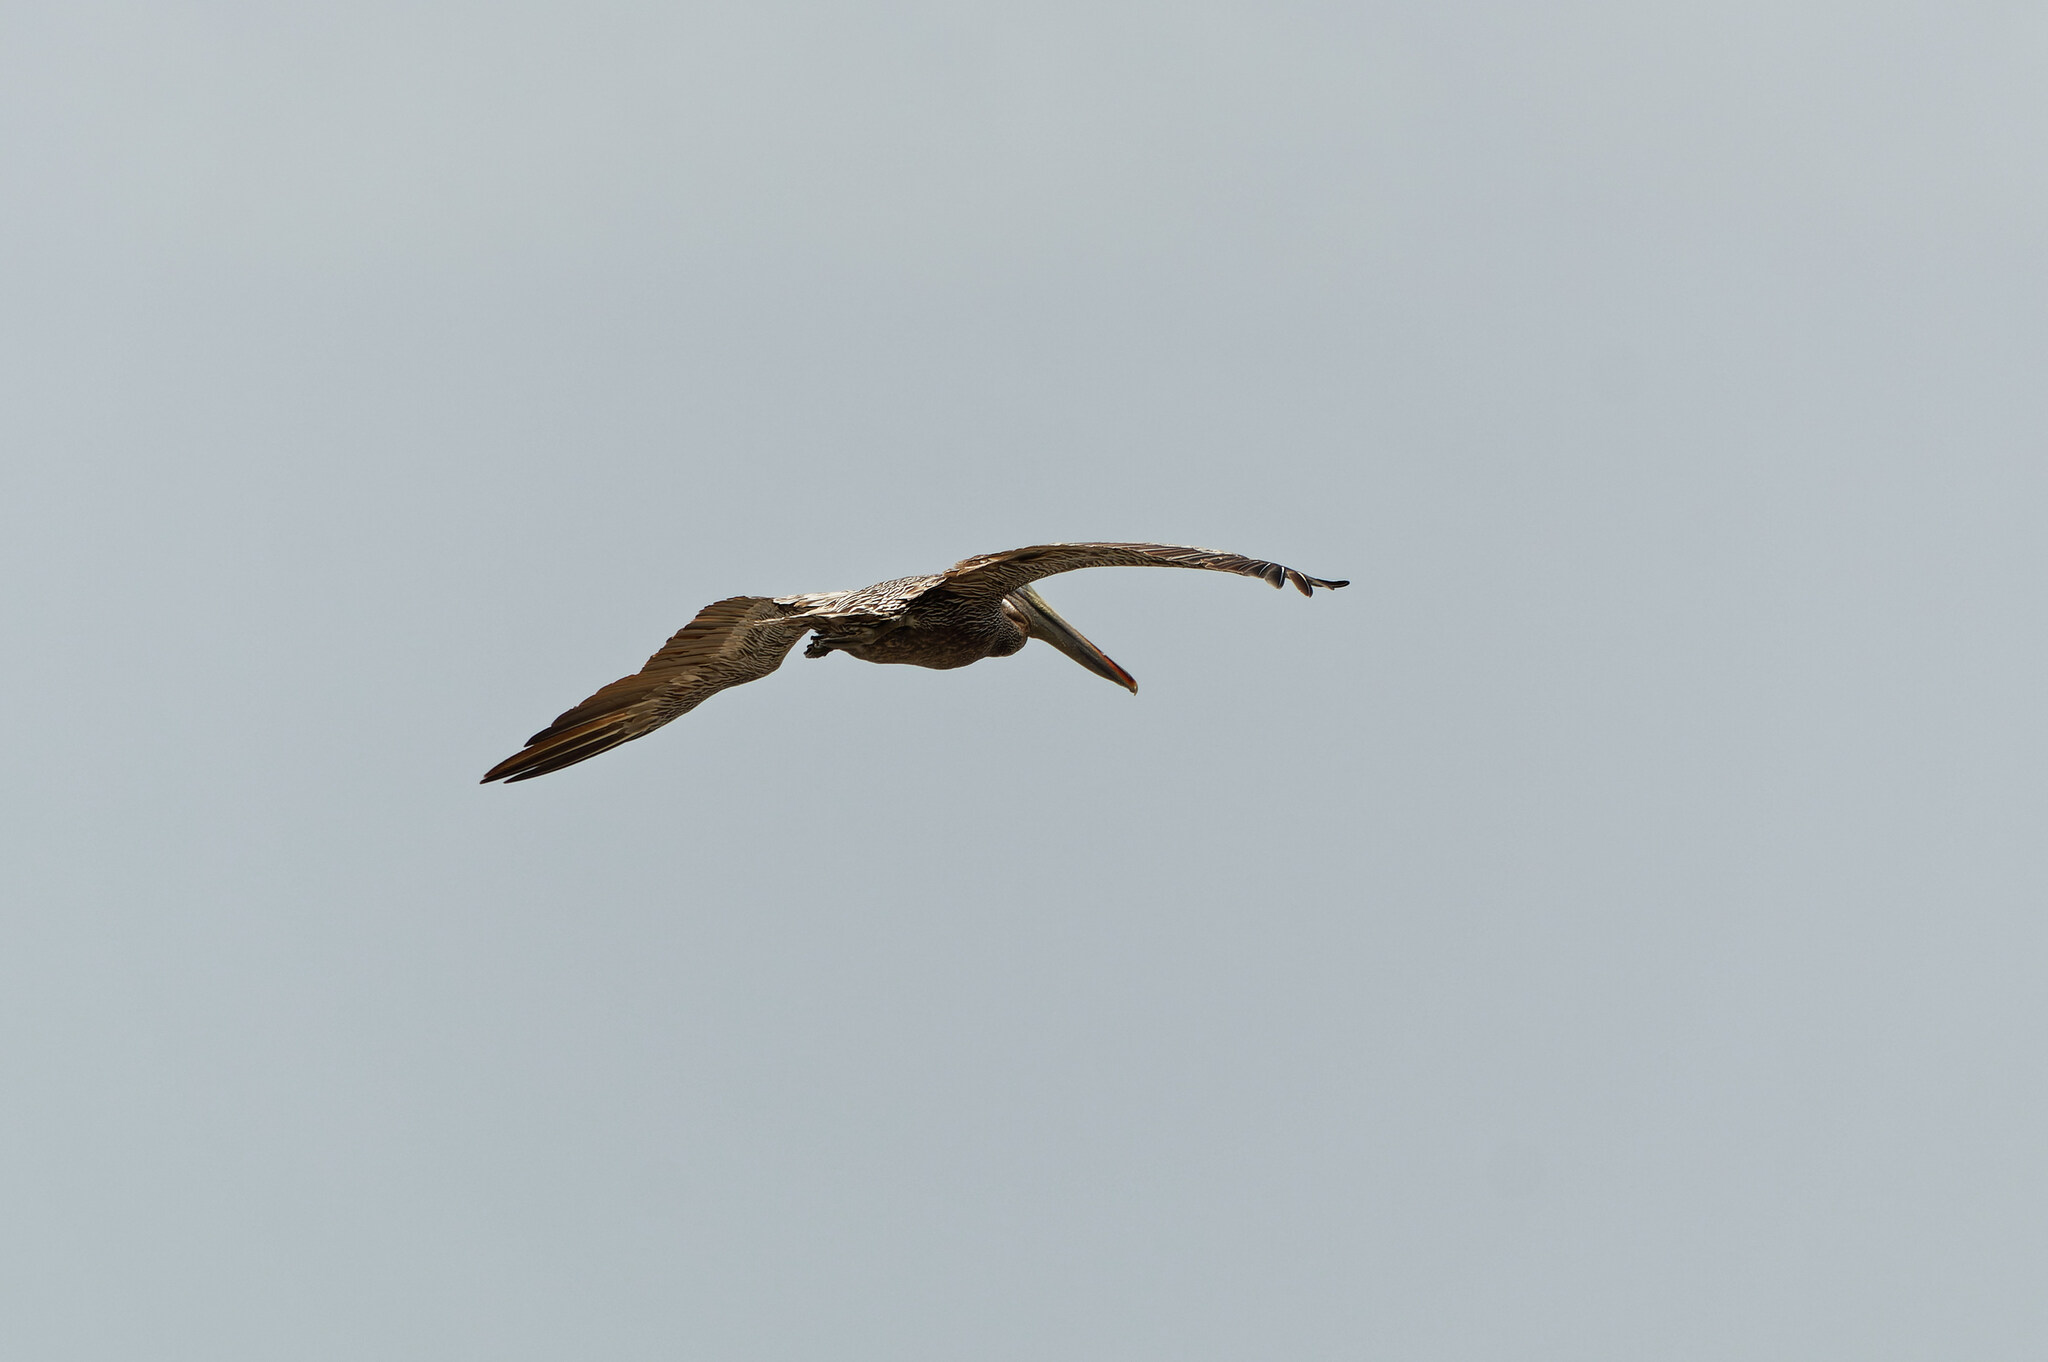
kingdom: Animalia
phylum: Chordata
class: Aves
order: Pelecaniformes
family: Pelecanidae
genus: Pelecanus
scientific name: Pelecanus occidentalis
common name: Brown pelican
